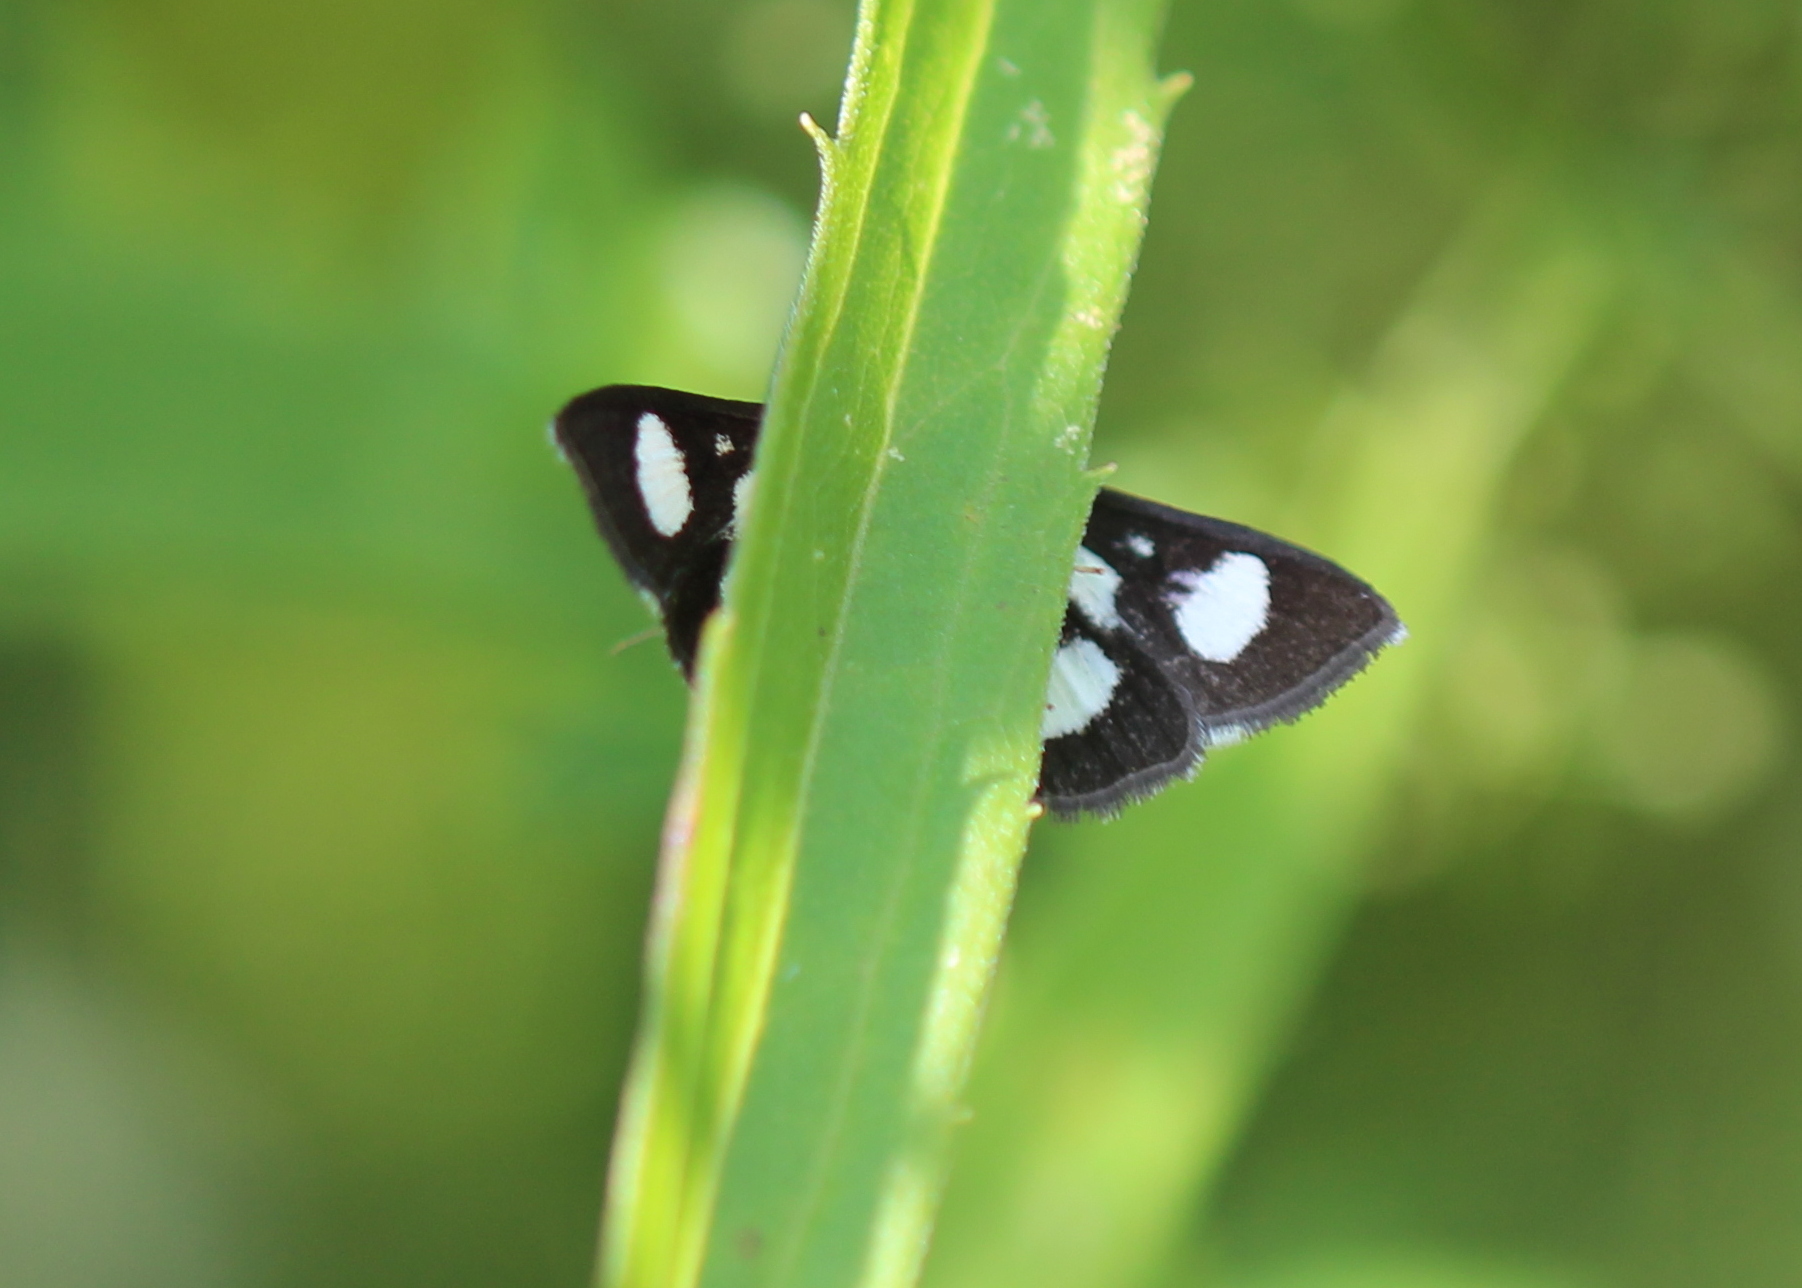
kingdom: Animalia
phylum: Arthropoda
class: Insecta
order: Lepidoptera
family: Crambidae
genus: Anania
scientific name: Anania funebris
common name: White-spotted sable moth
